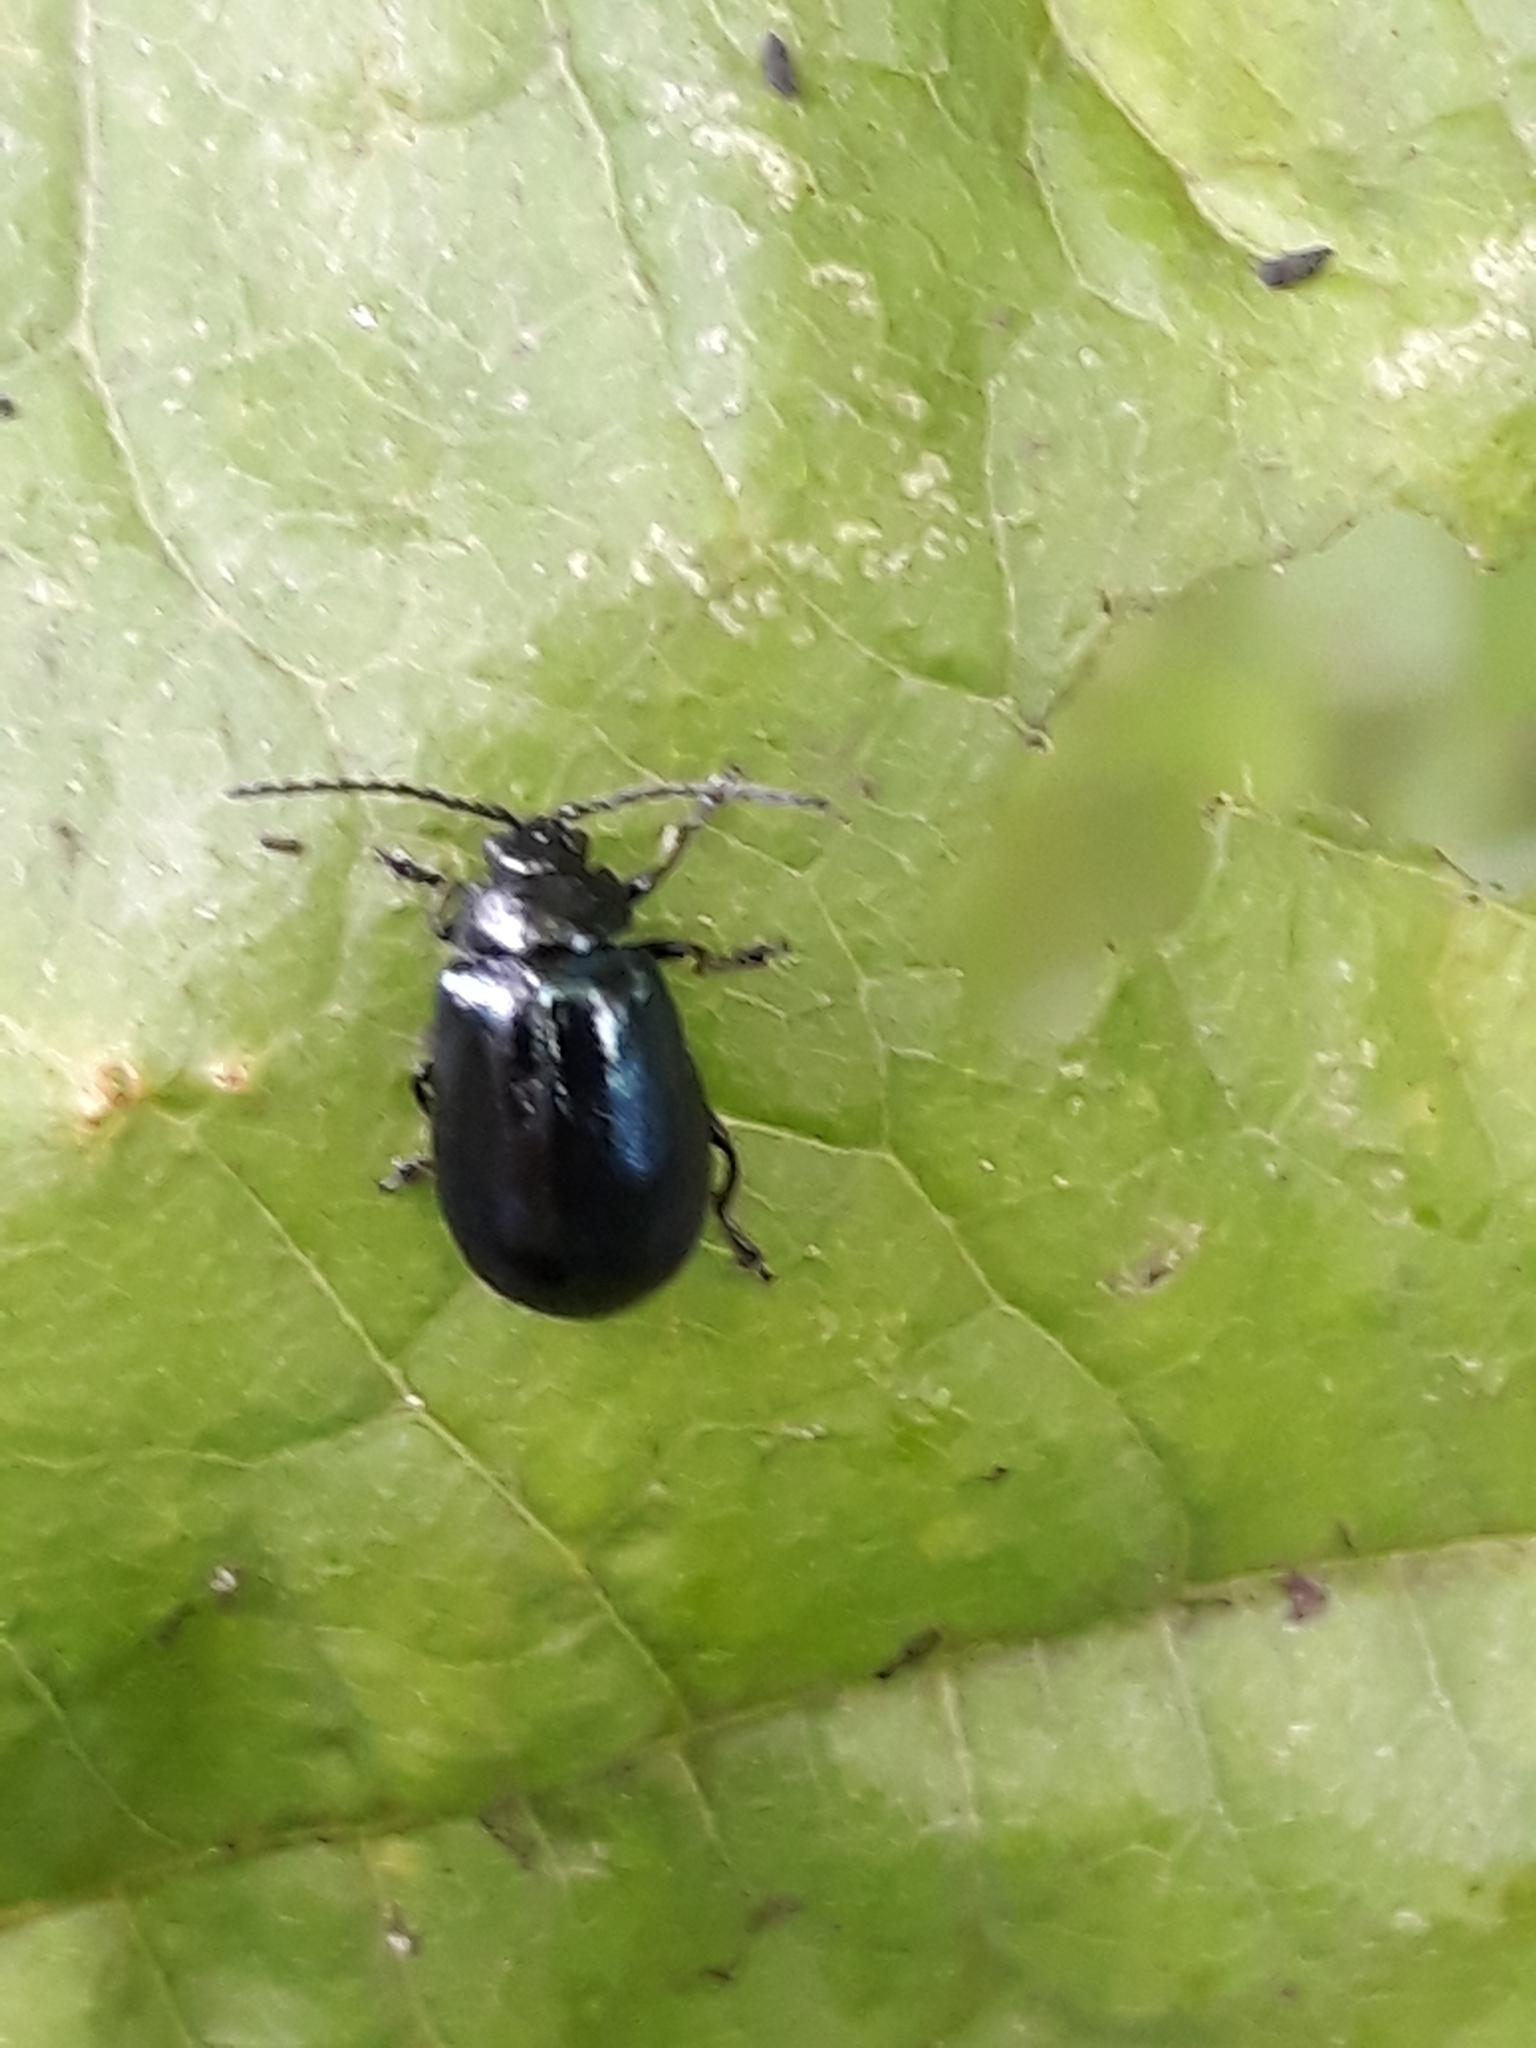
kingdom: Animalia
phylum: Arthropoda
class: Insecta
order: Coleoptera
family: Chrysomelidae
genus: Agelastica
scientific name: Agelastica alni
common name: Alder leaf beetle
